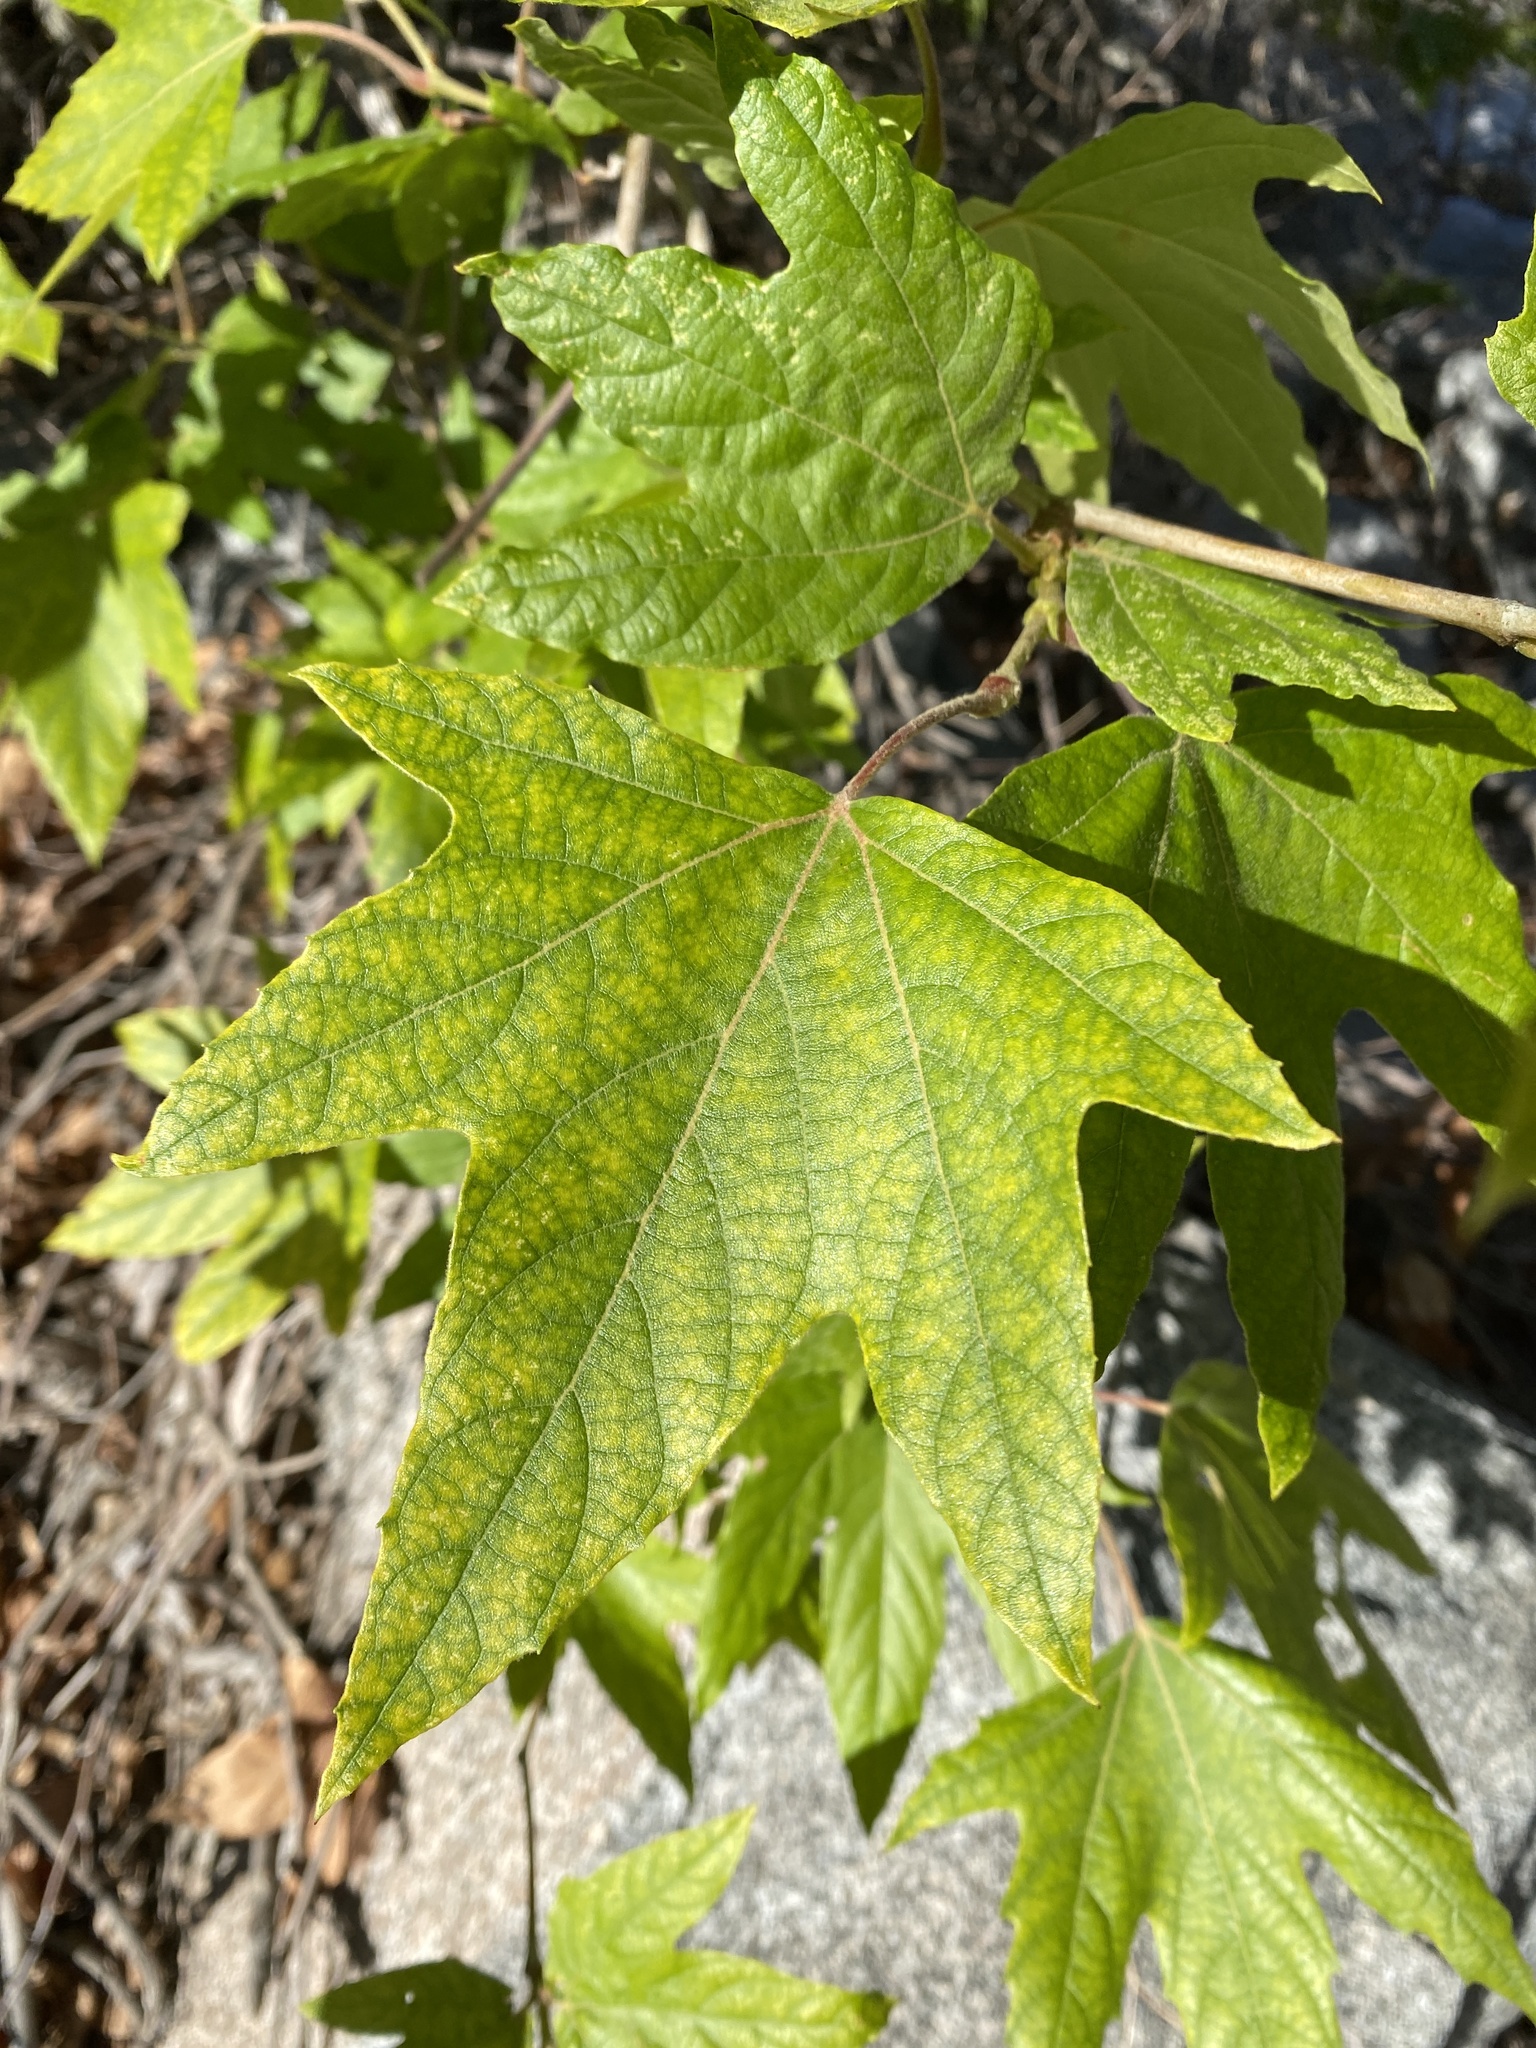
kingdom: Plantae
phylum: Tracheophyta
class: Magnoliopsida
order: Proteales
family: Platanaceae
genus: Platanus
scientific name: Platanus racemosa
